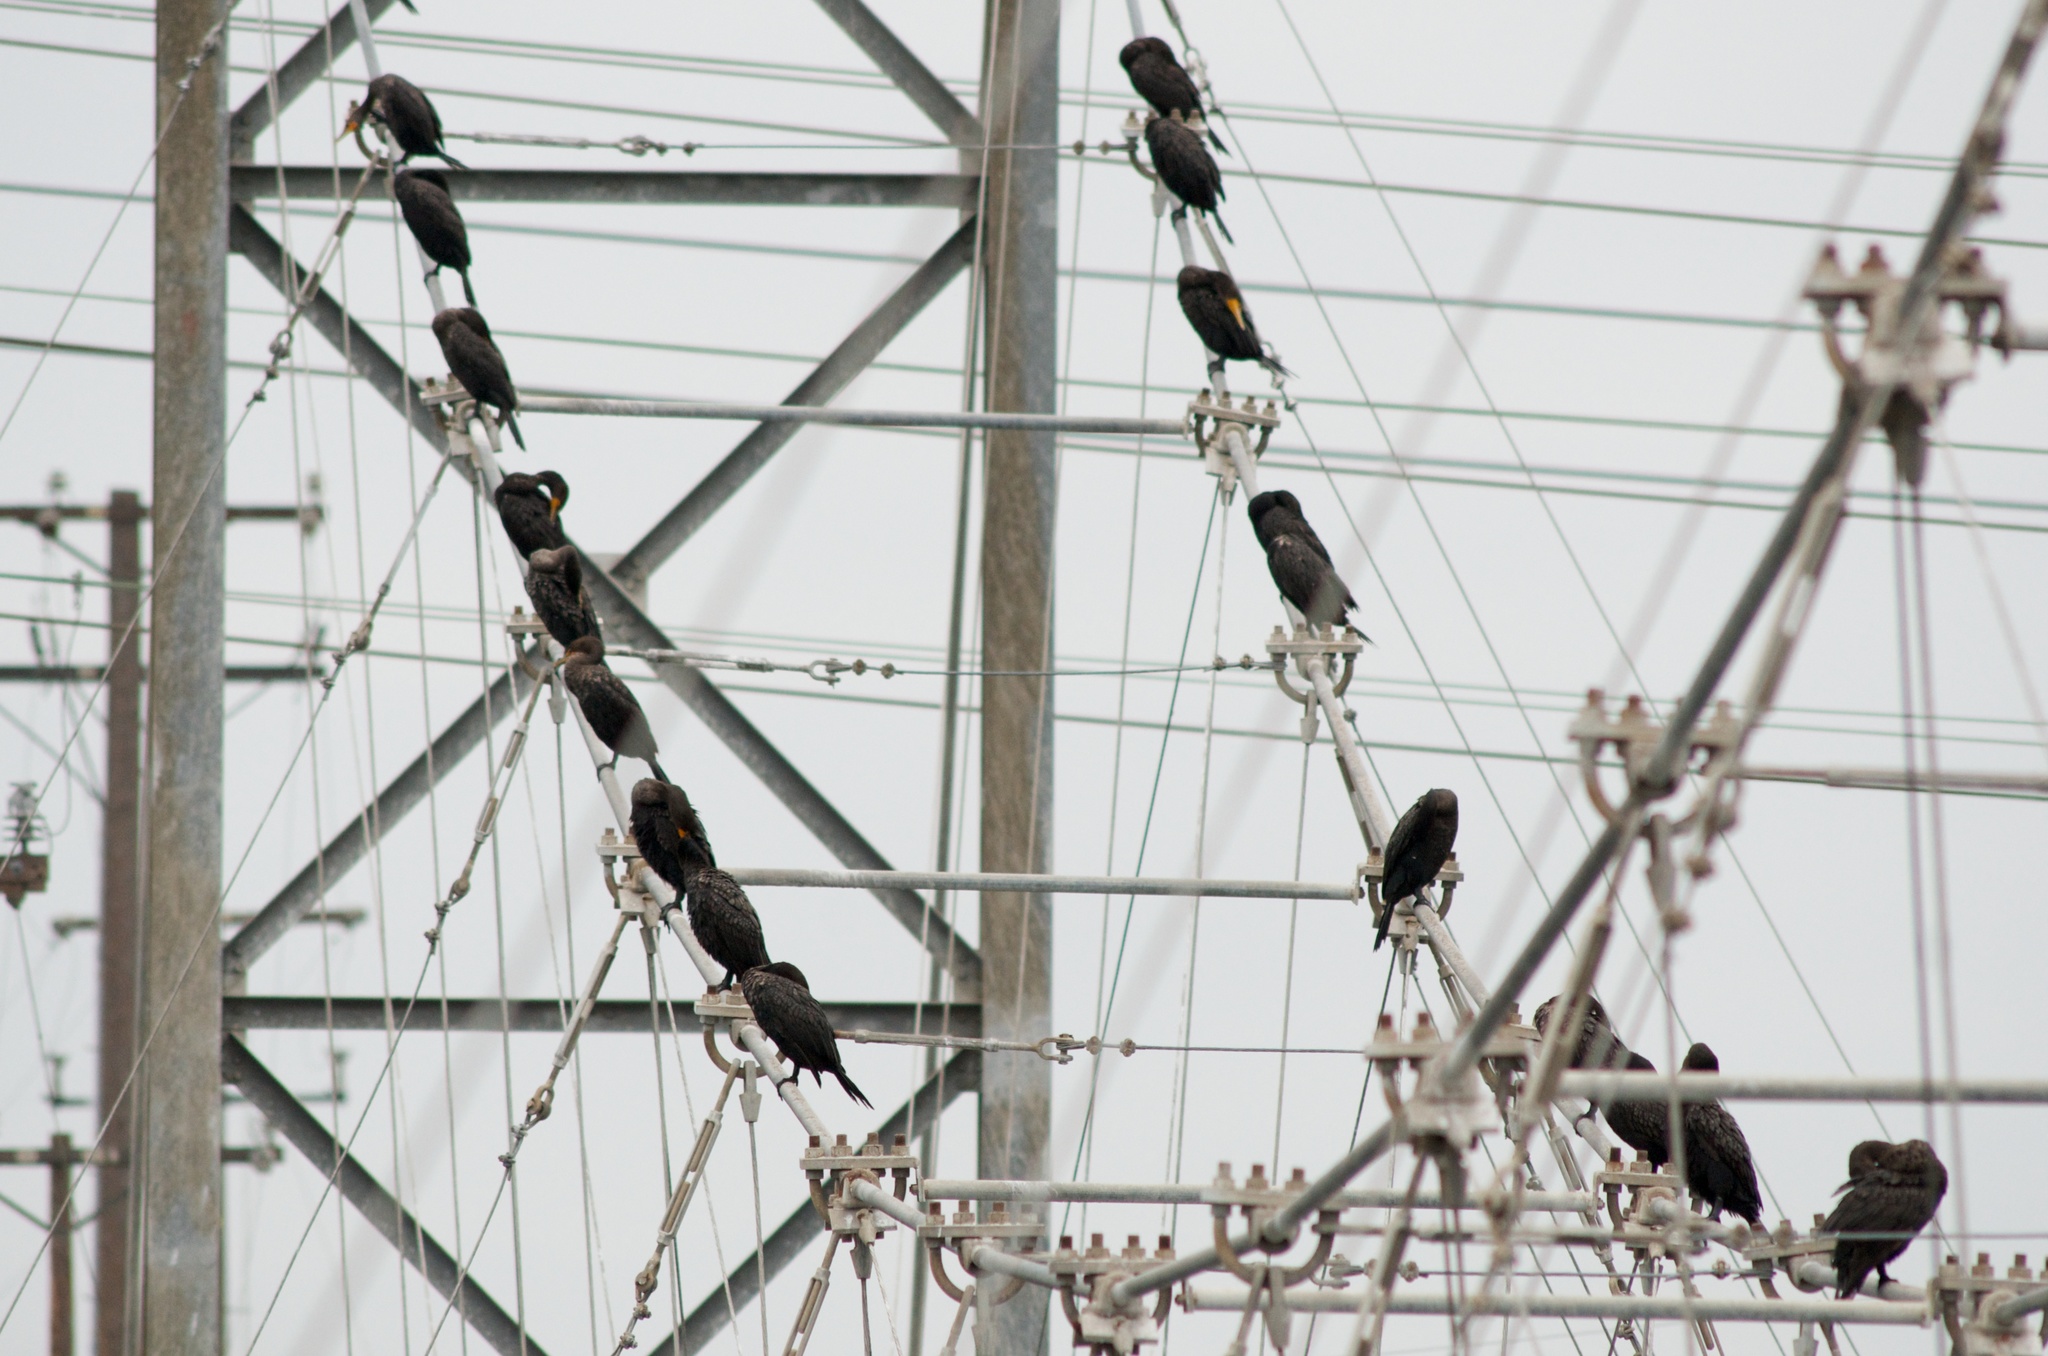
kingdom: Animalia
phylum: Chordata
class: Aves
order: Suliformes
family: Phalacrocoracidae
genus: Phalacrocorax
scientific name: Phalacrocorax auritus
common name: Double-crested cormorant
